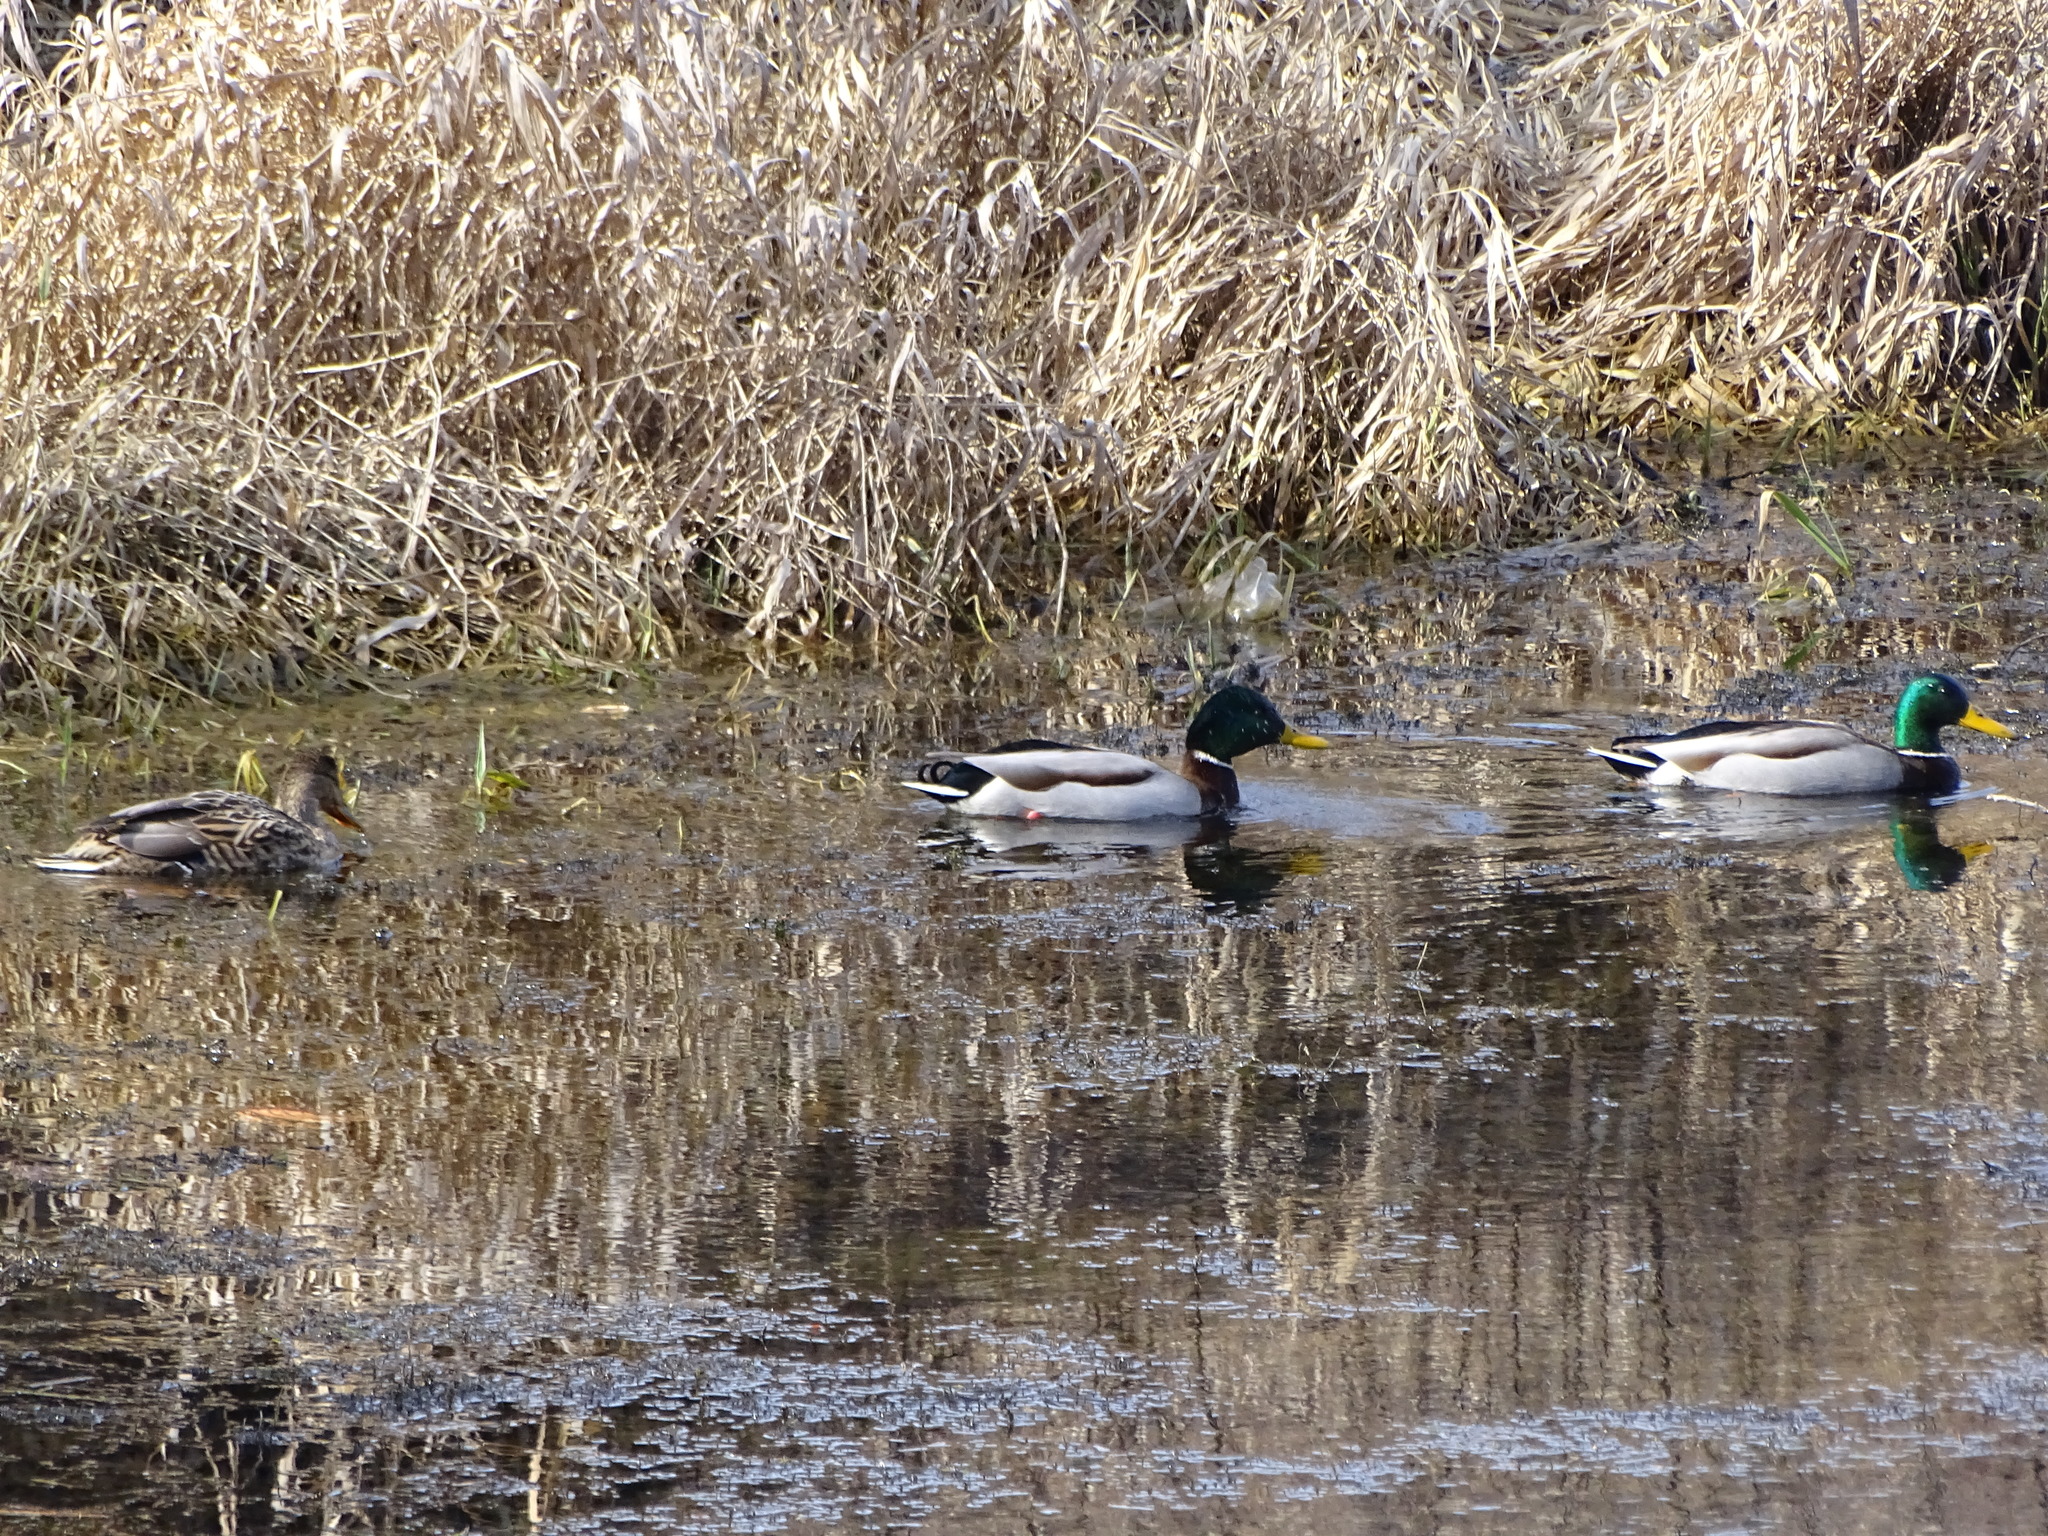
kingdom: Animalia
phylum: Chordata
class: Aves
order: Anseriformes
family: Anatidae
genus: Anas
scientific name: Anas platyrhynchos
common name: Mallard
